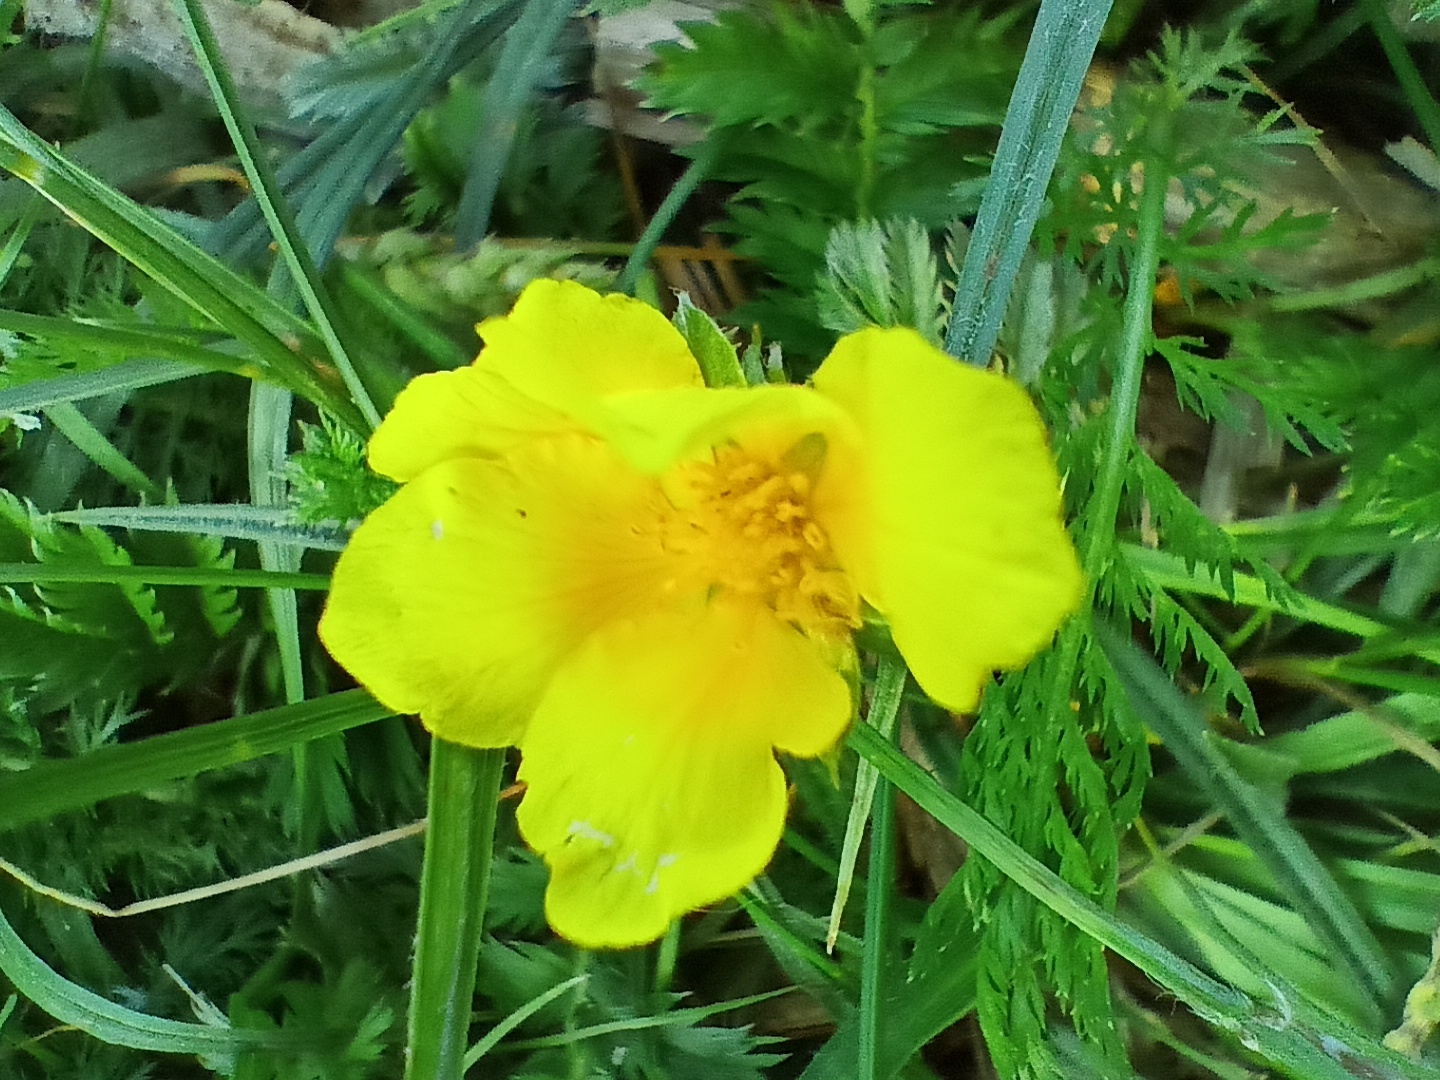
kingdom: Plantae
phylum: Tracheophyta
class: Magnoliopsida
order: Rosales
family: Rosaceae
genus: Argentina
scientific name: Argentina anserina
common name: Common silverweed
